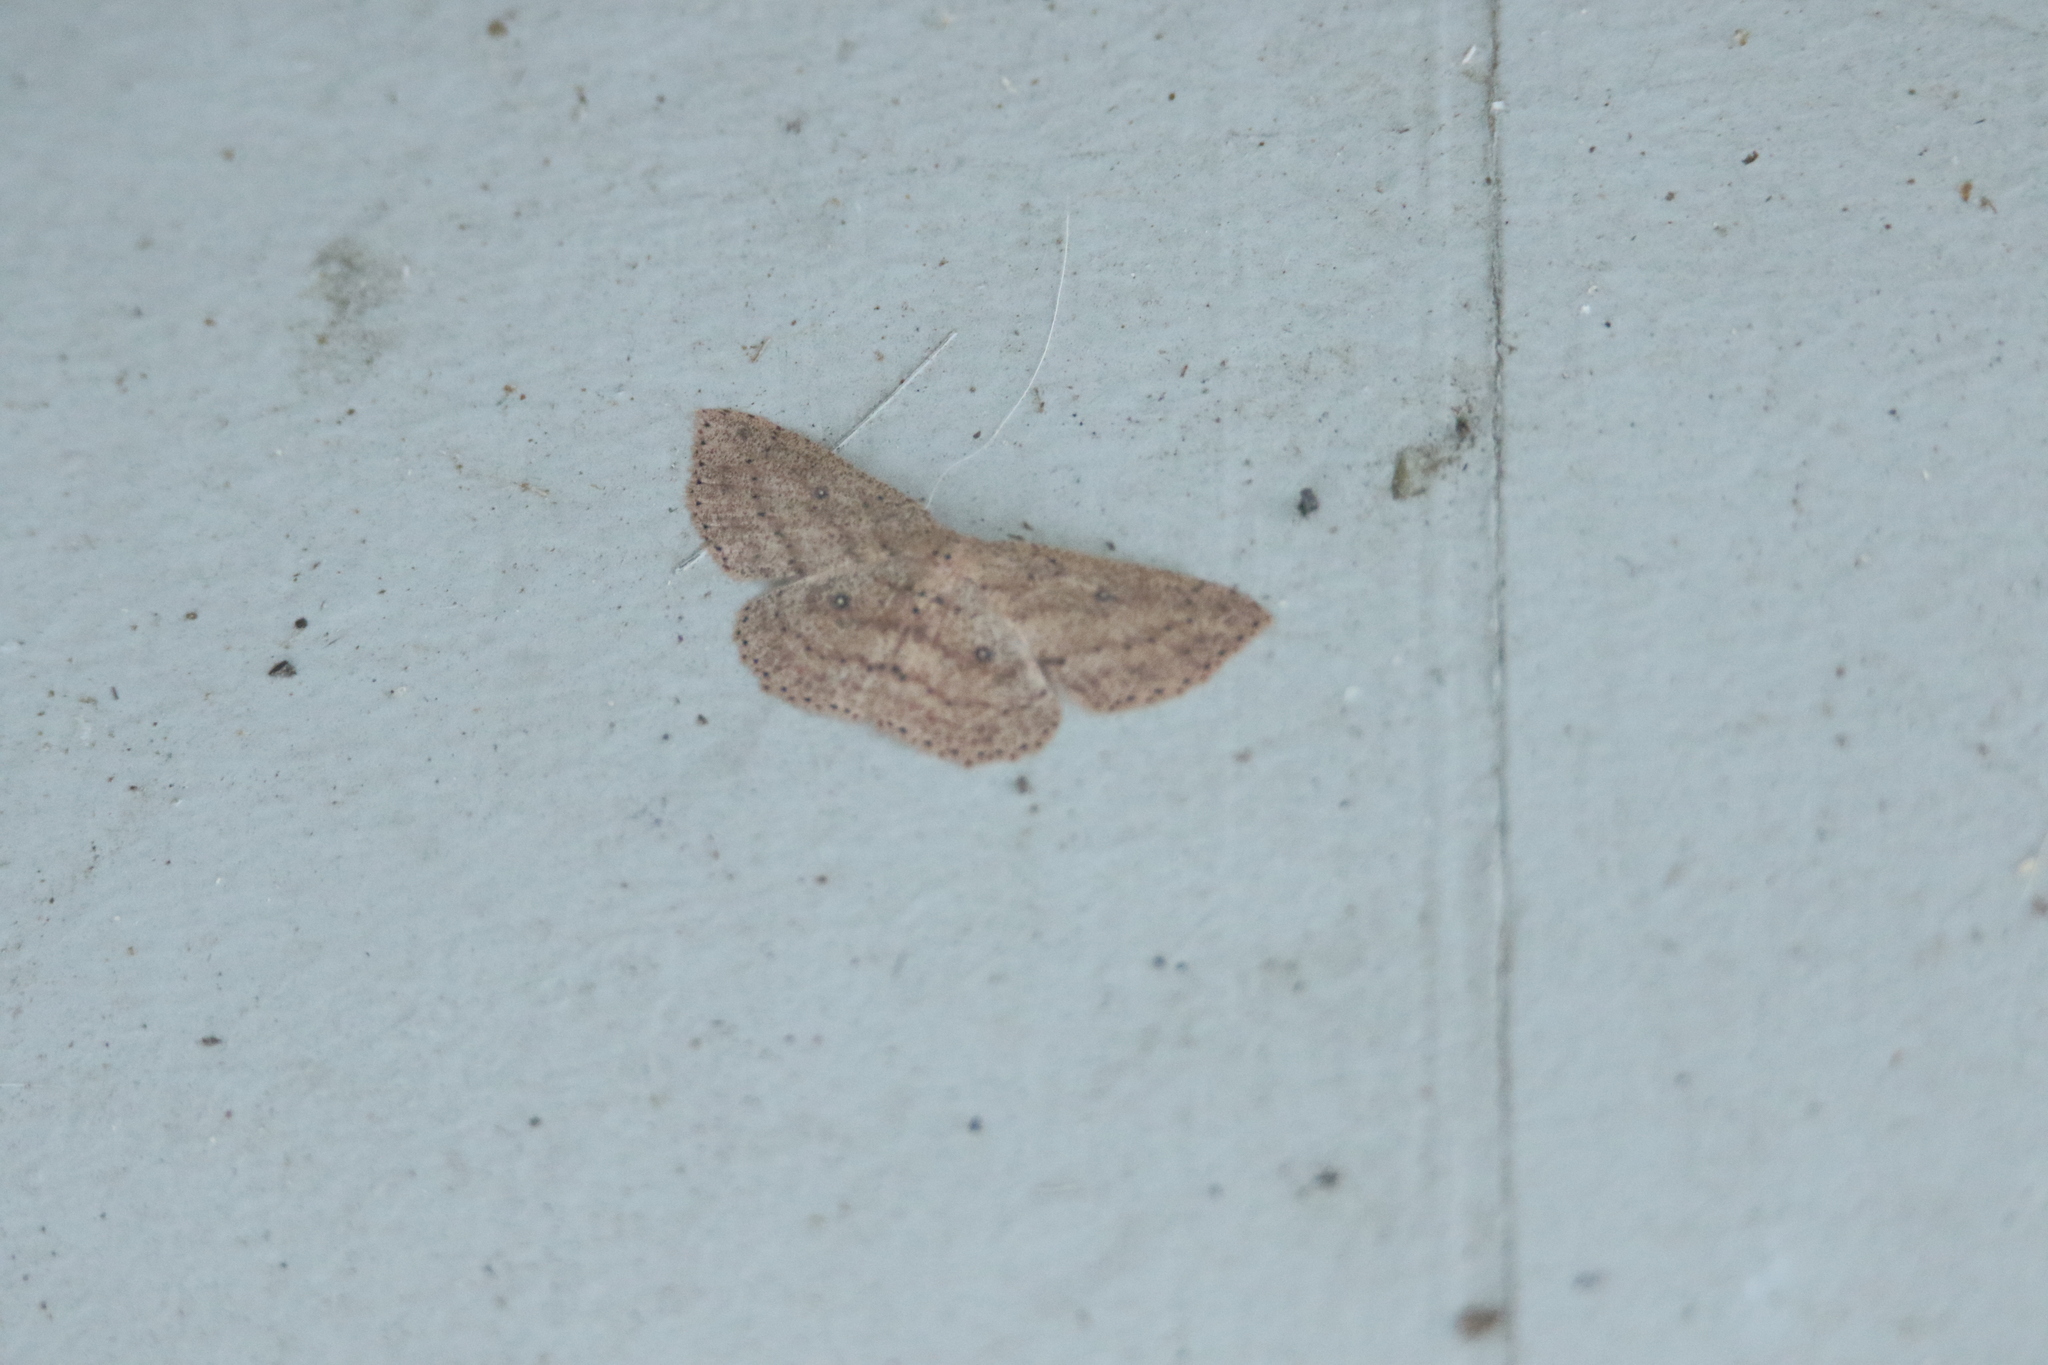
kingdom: Animalia
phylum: Arthropoda
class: Insecta
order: Lepidoptera
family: Geometridae
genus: Cyclophora
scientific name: Cyclophora myrtaria
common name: Waxmyrtle wave moth
